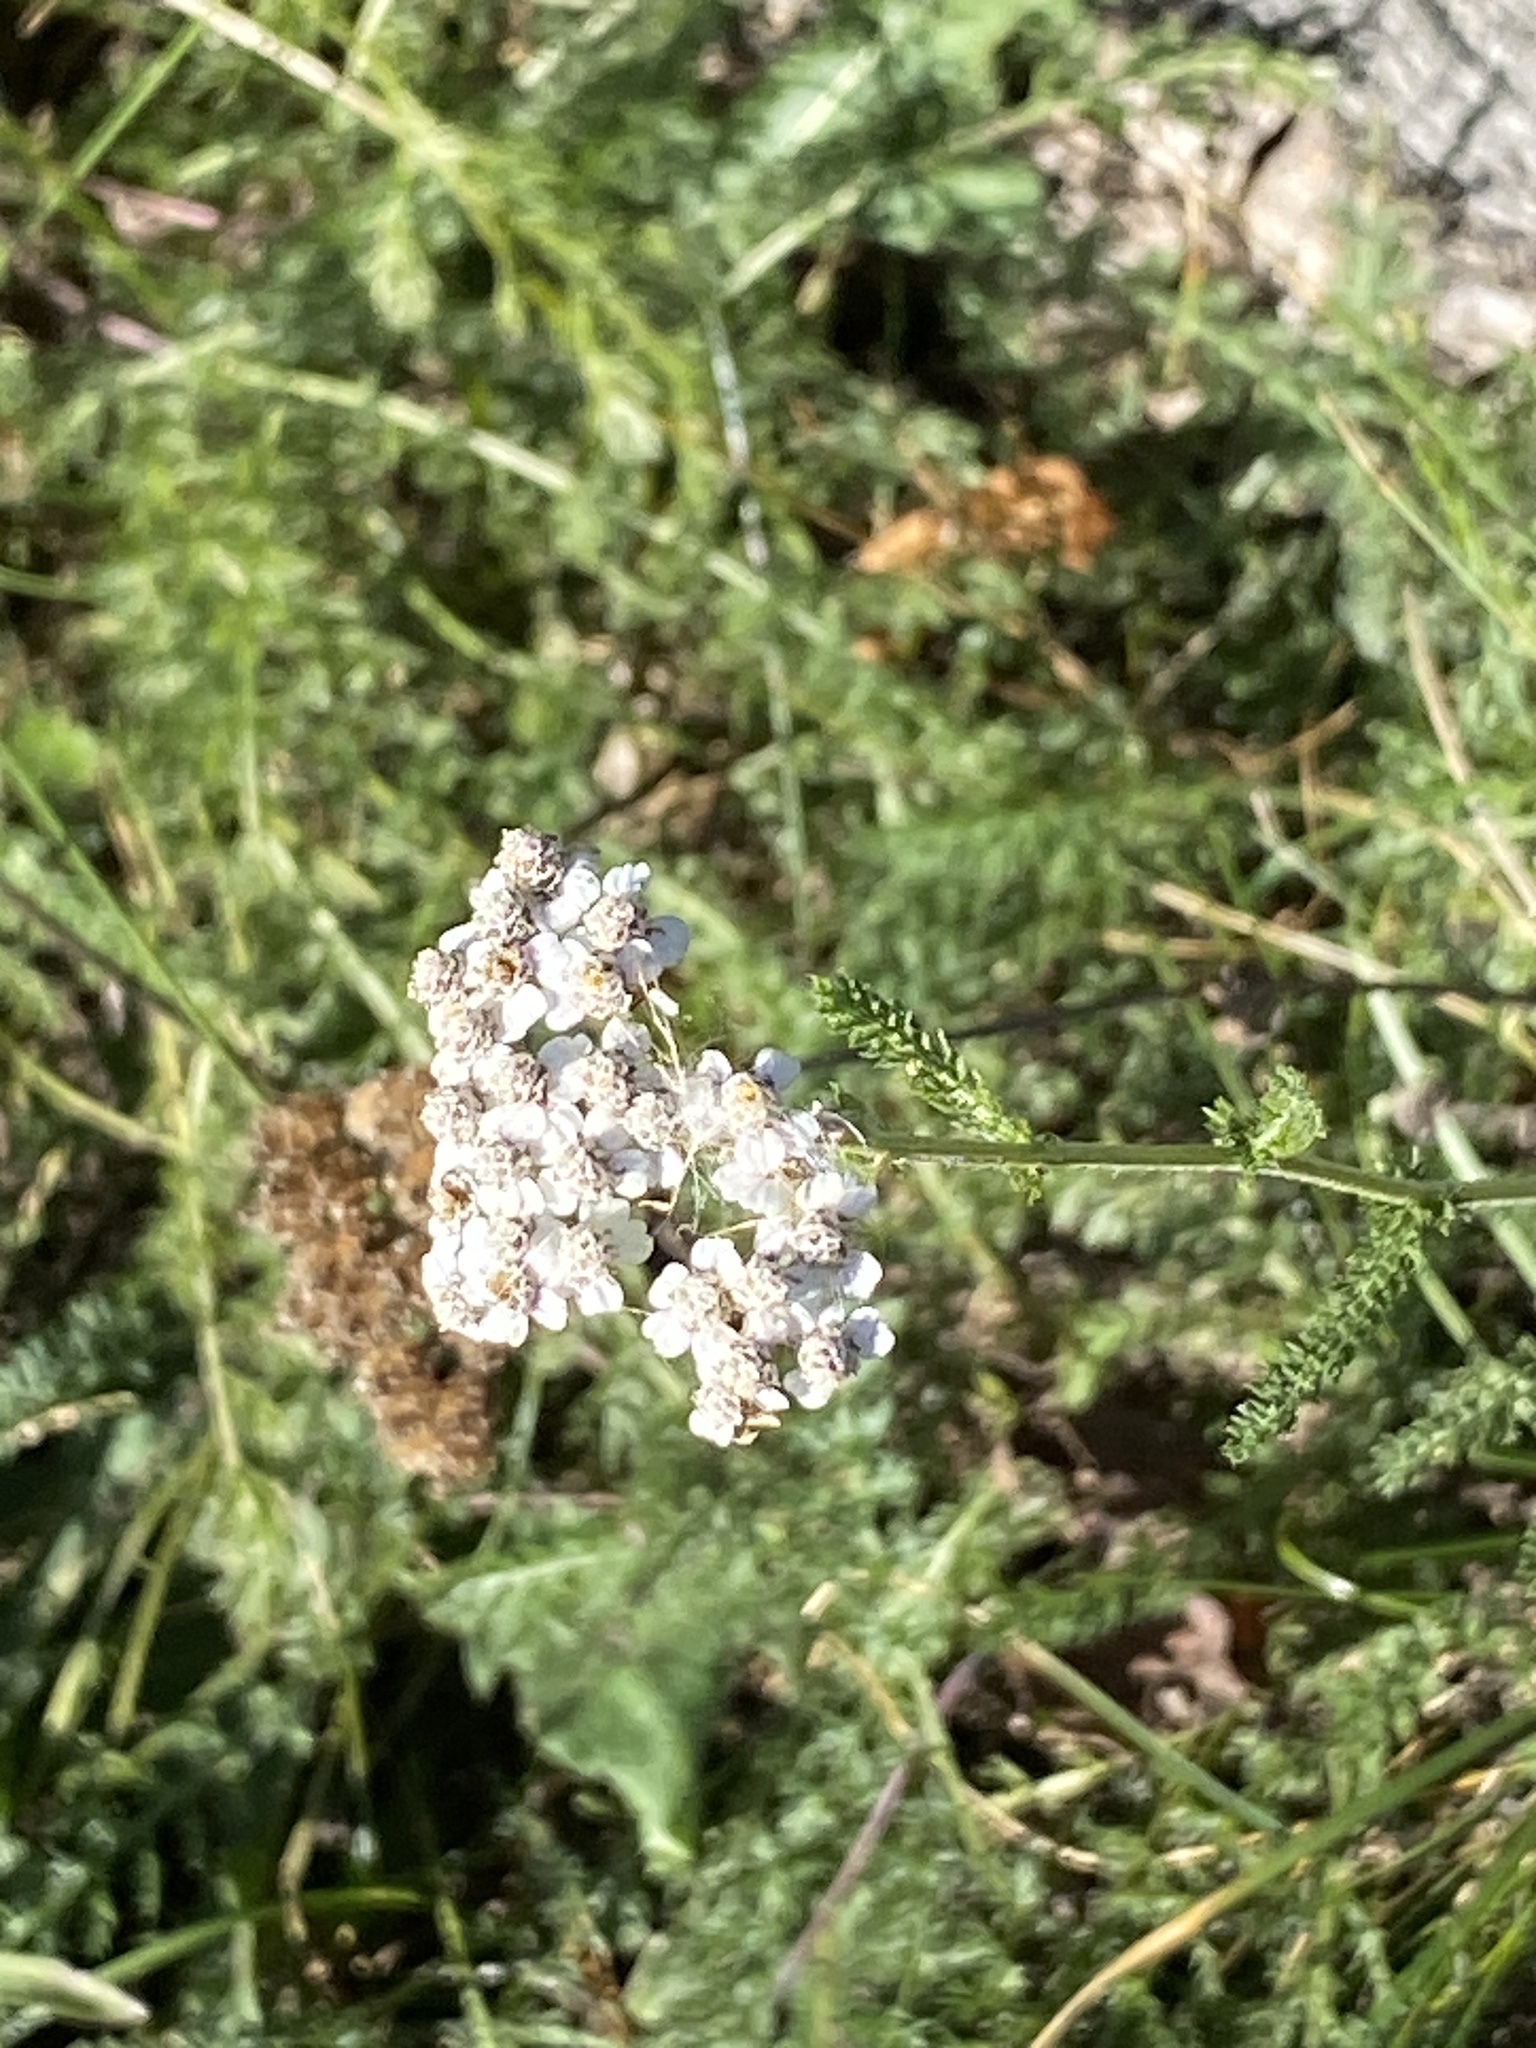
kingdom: Plantae
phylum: Tracheophyta
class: Magnoliopsida
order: Asterales
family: Asteraceae
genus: Achillea
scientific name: Achillea millefolium
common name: Yarrow
